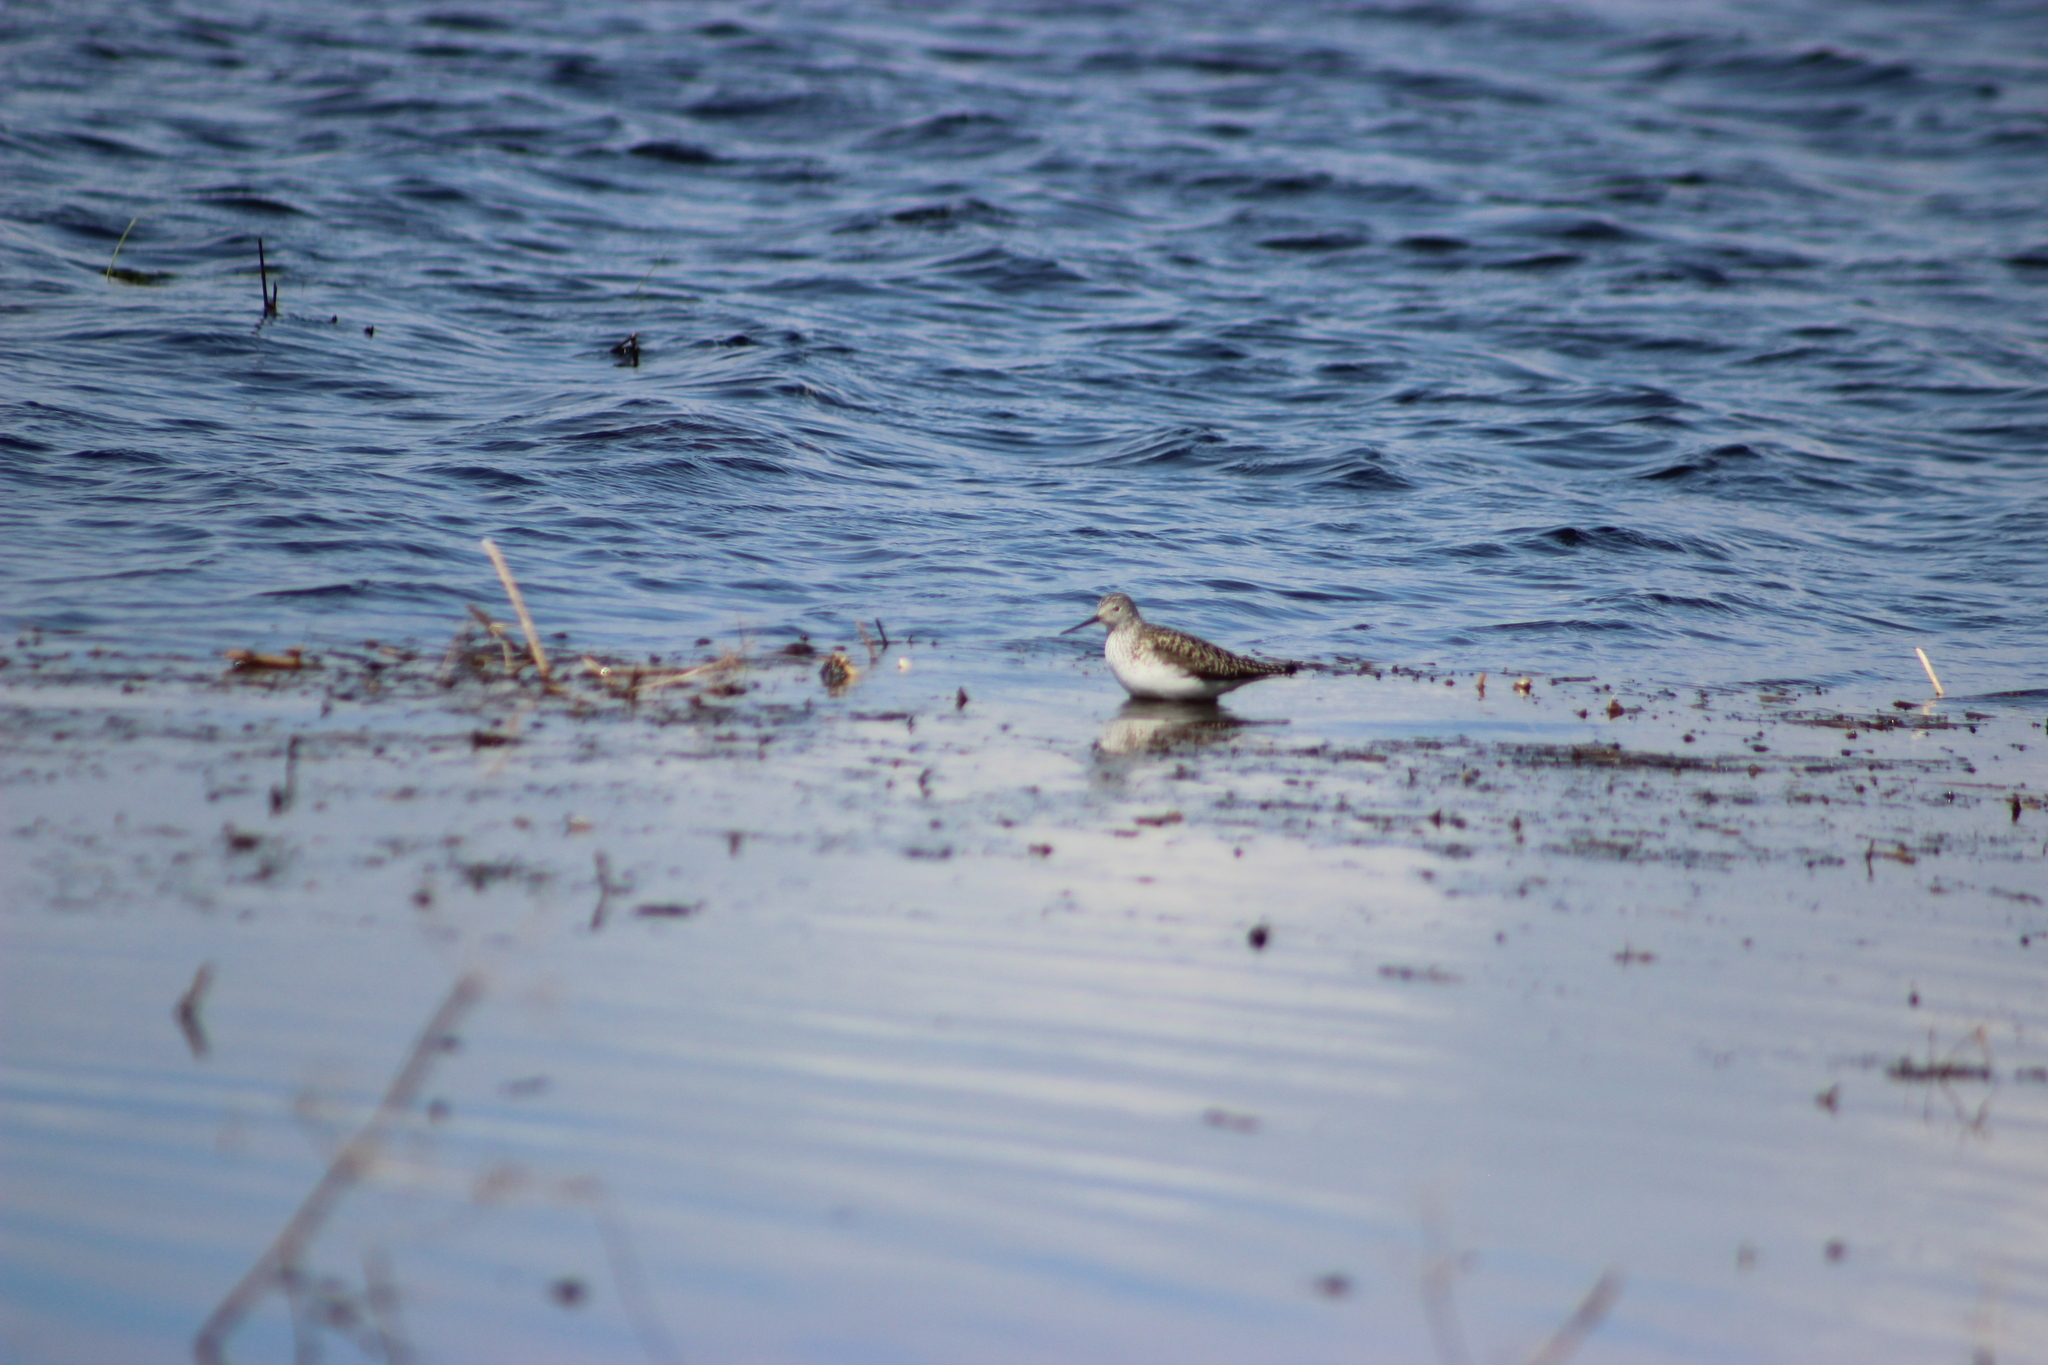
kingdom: Animalia
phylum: Chordata
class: Aves
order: Charadriiformes
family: Scolopacidae
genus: Tringa
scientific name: Tringa glareola
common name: Wood sandpiper
